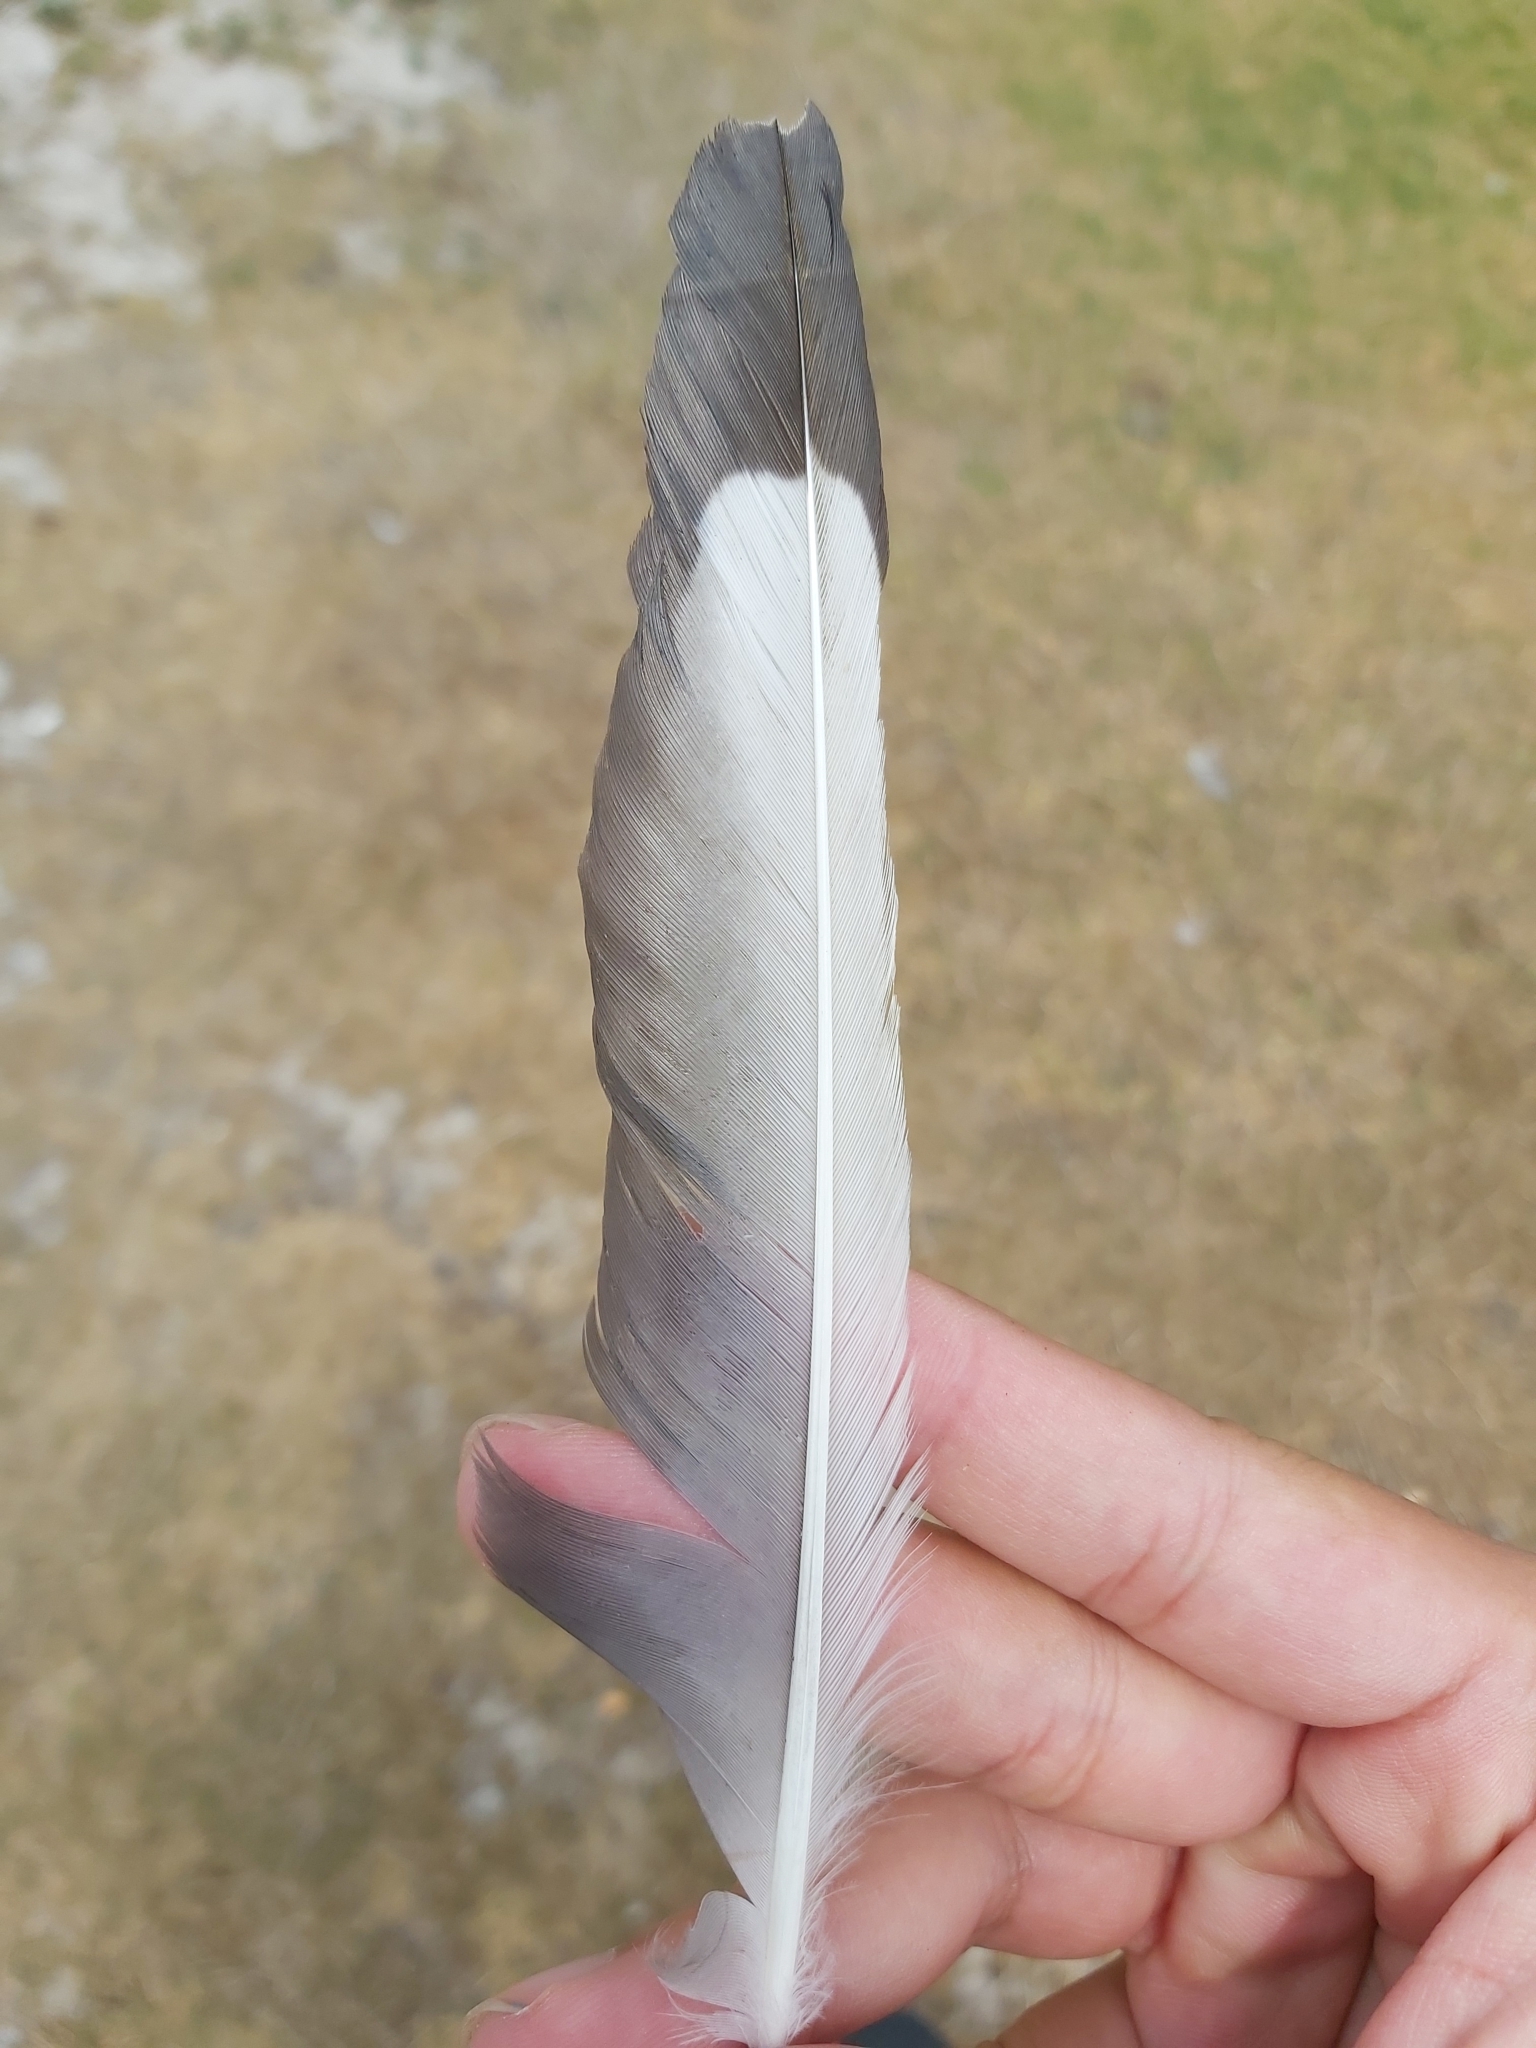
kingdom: Animalia
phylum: Chordata
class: Aves
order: Charadriiformes
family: Laridae
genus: Chroicocephalus
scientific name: Chroicocephalus novaehollandiae
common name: Silver gull
